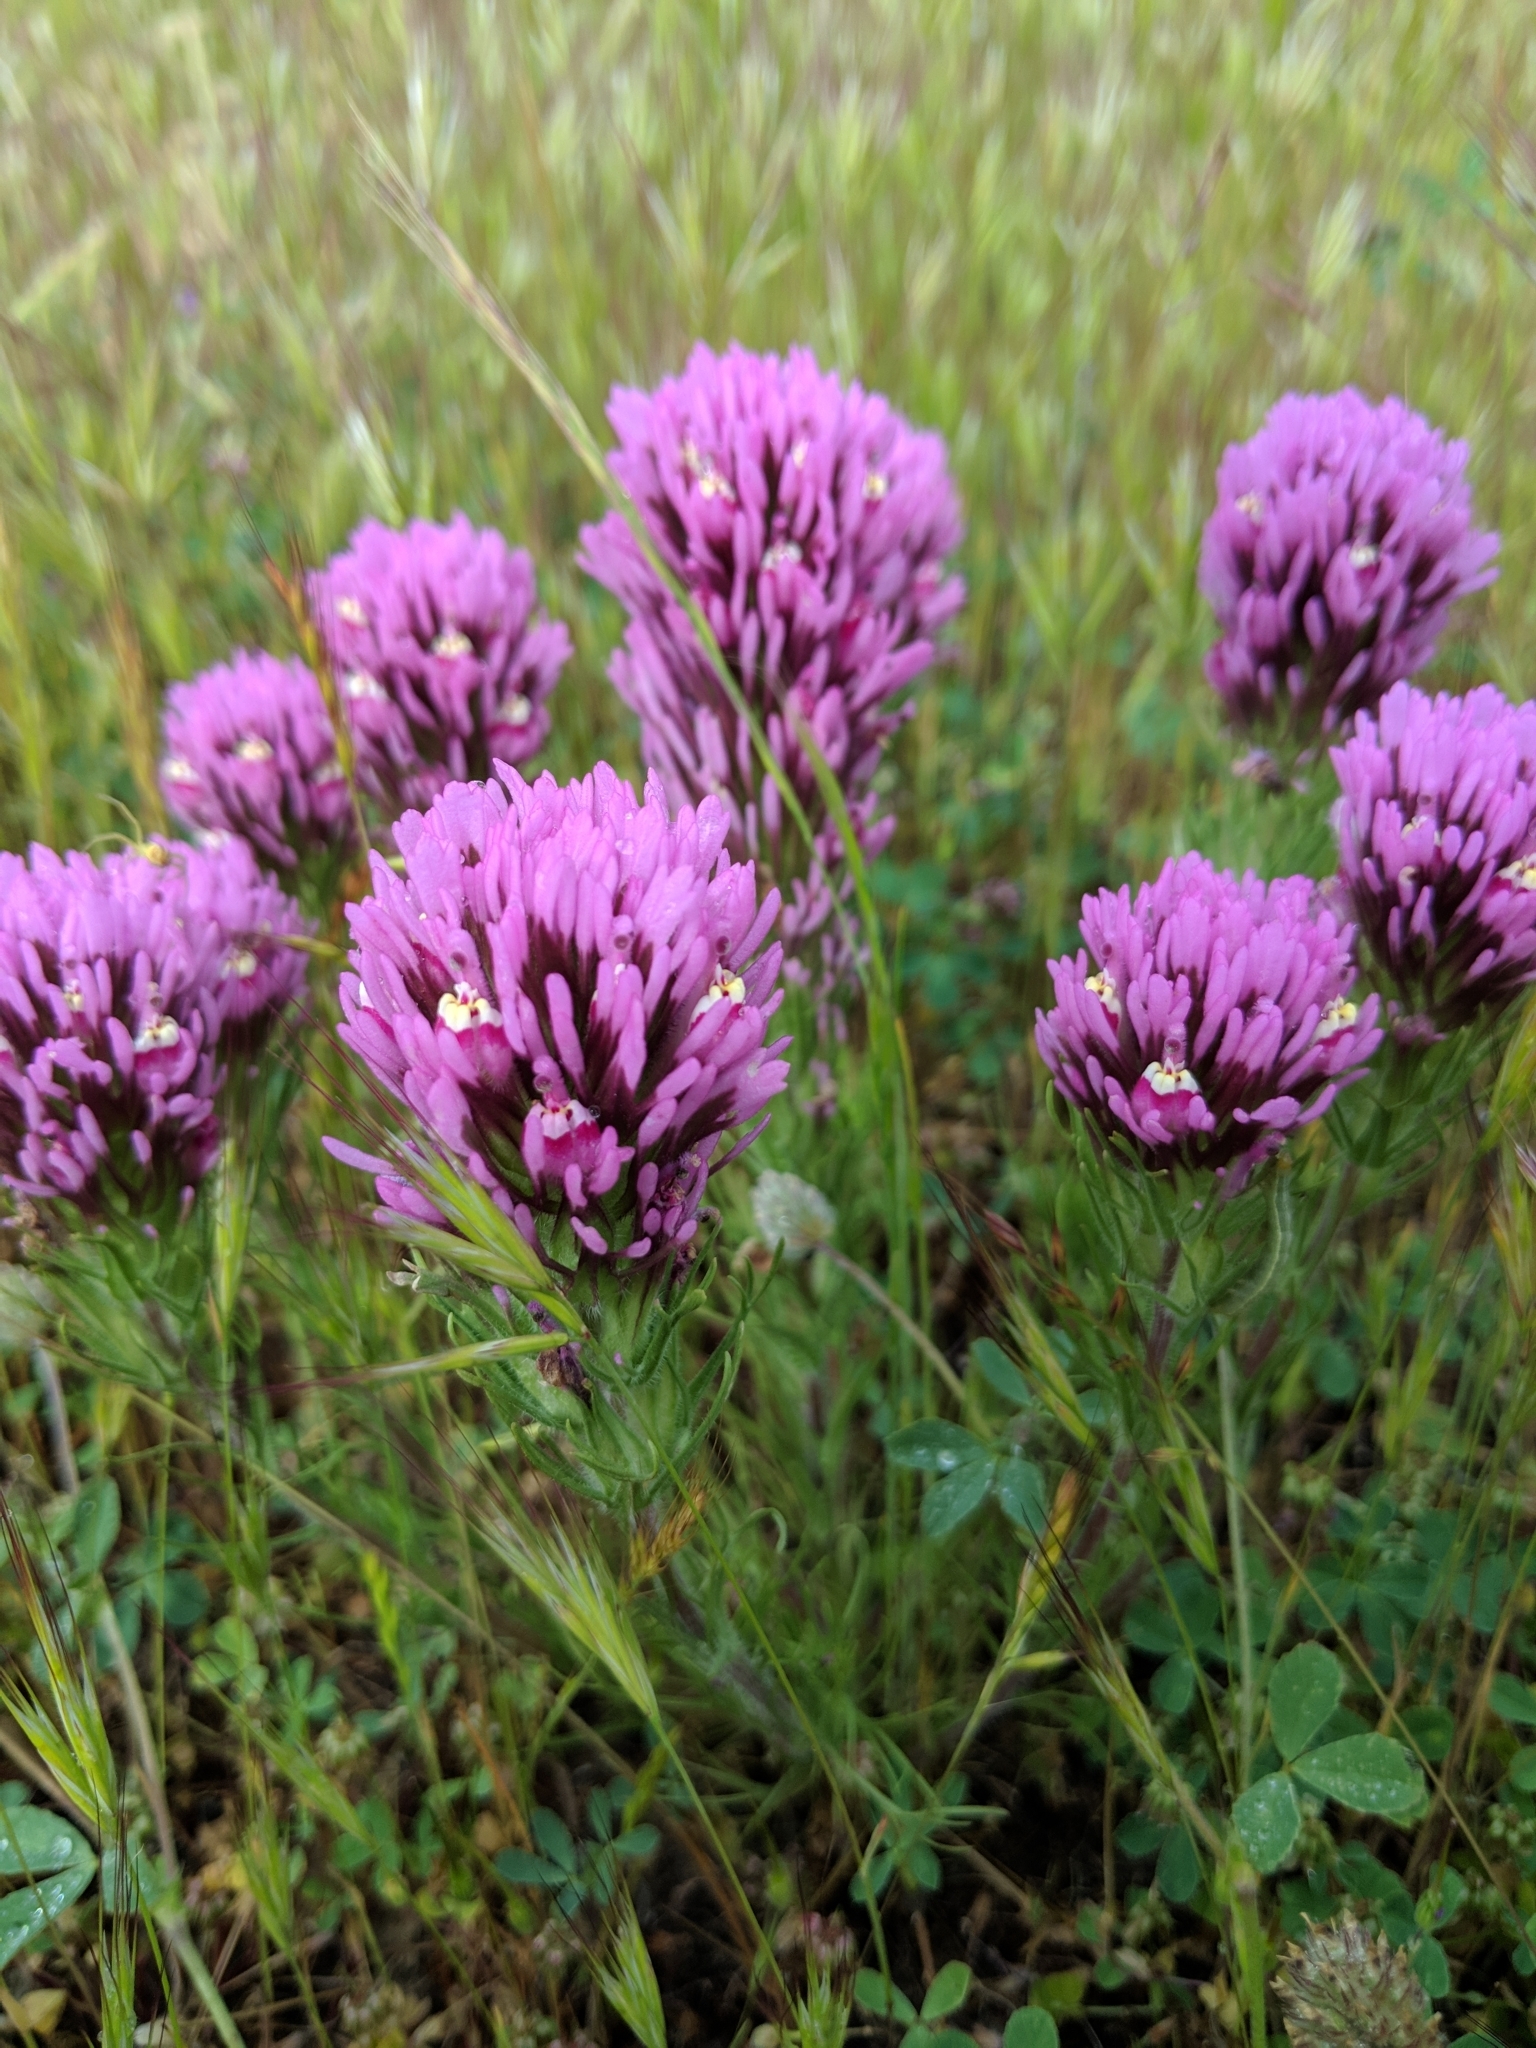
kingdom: Plantae
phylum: Tracheophyta
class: Magnoliopsida
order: Lamiales
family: Orobanchaceae
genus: Castilleja
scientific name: Castilleja exserta
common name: Purple owl-clover
